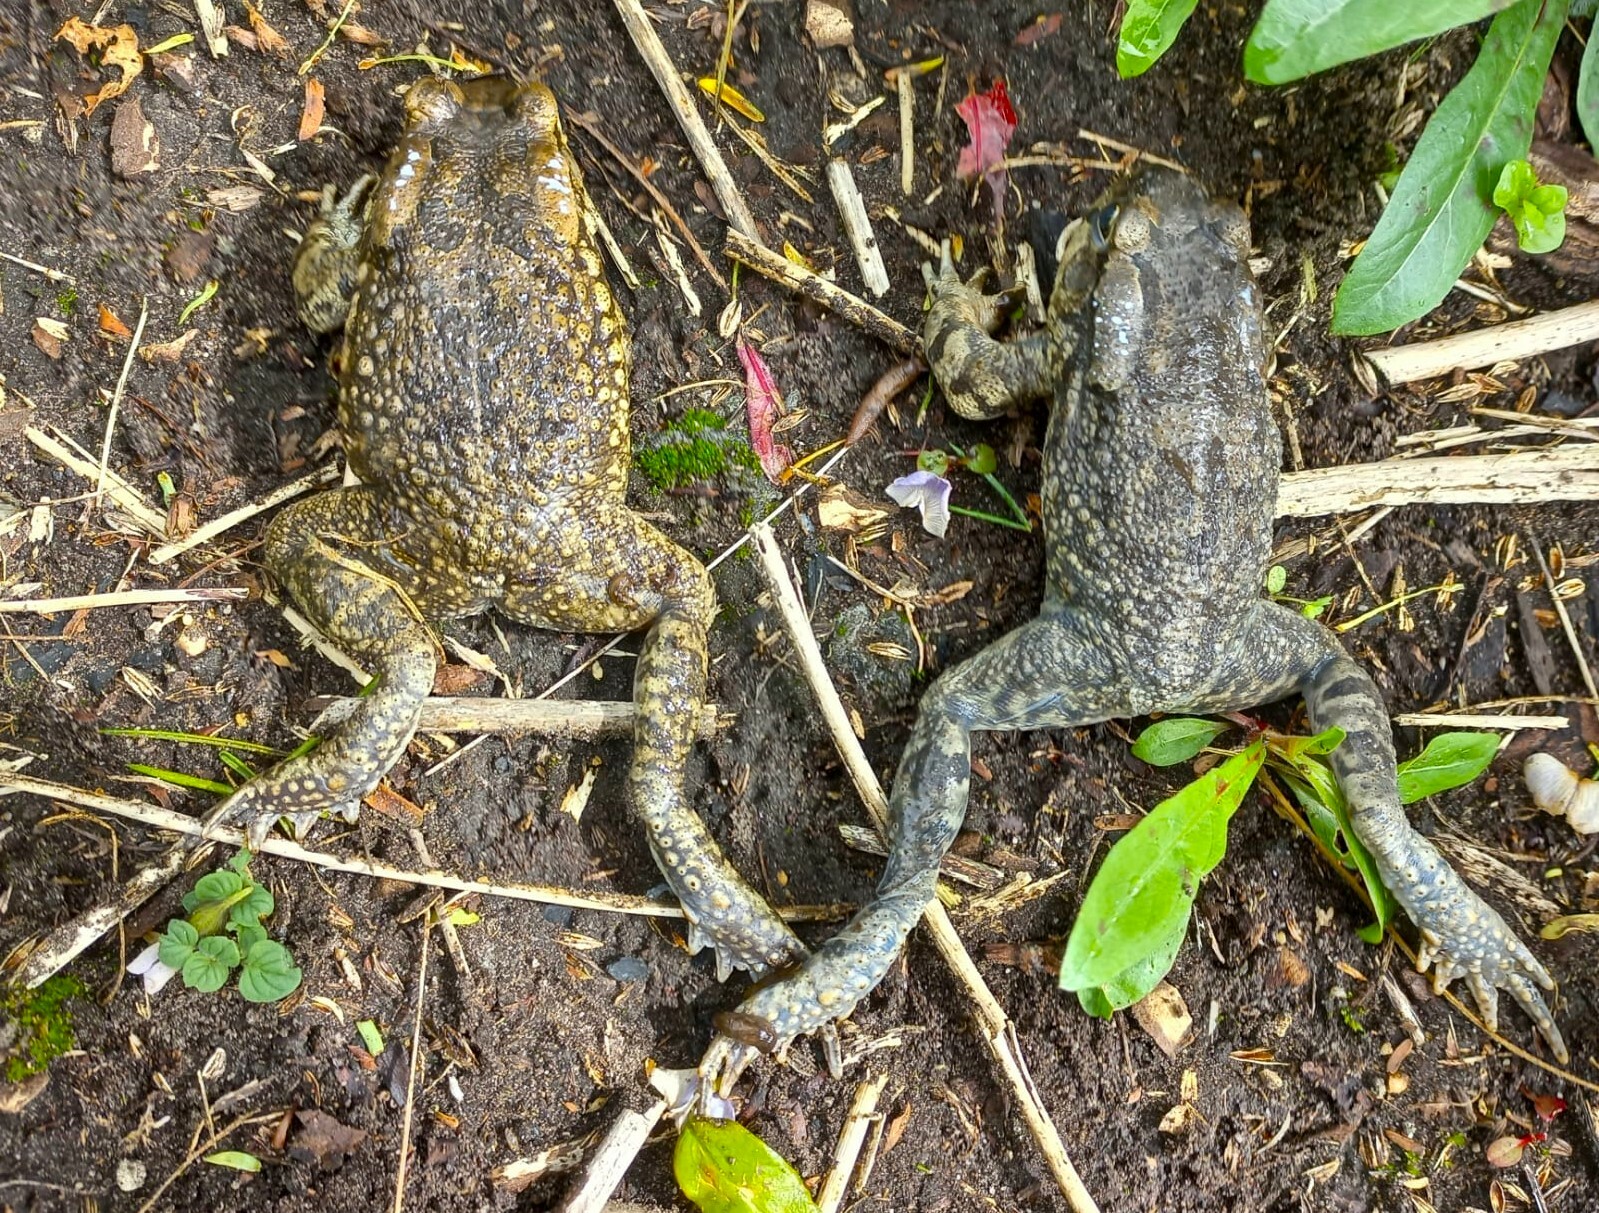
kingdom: Animalia
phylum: Chordata
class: Amphibia
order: Anura
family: Bufonidae
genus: Sclerophrys
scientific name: Sclerophrys capensis
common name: Ranger’s toad
